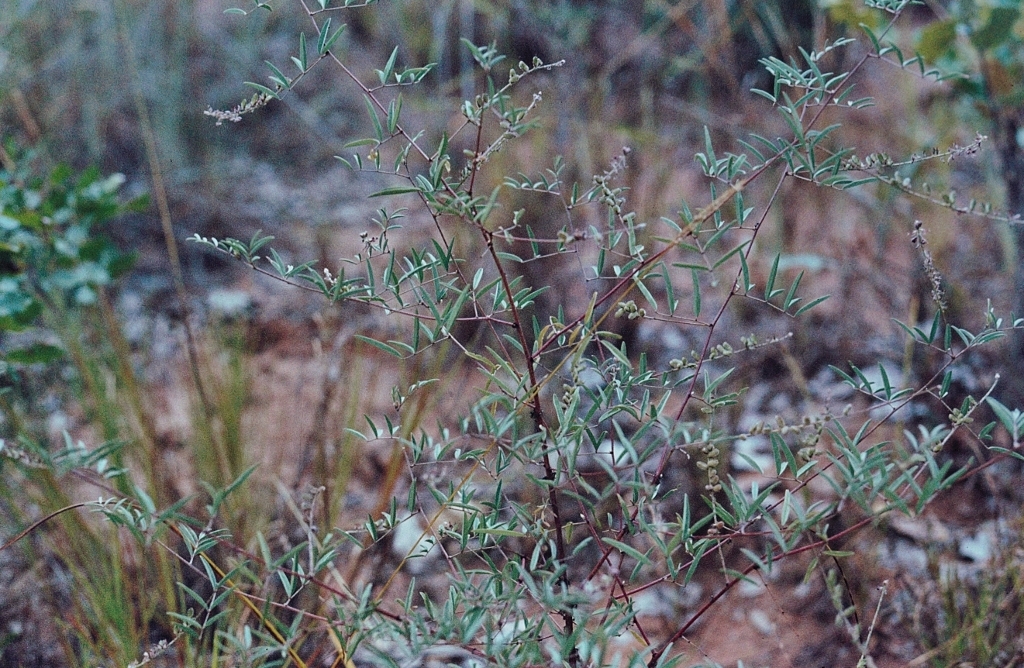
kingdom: Plantae
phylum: Tracheophyta
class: Magnoliopsida
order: Fabales
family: Fabaceae
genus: Indigofera
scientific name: Indigofera setiflora
